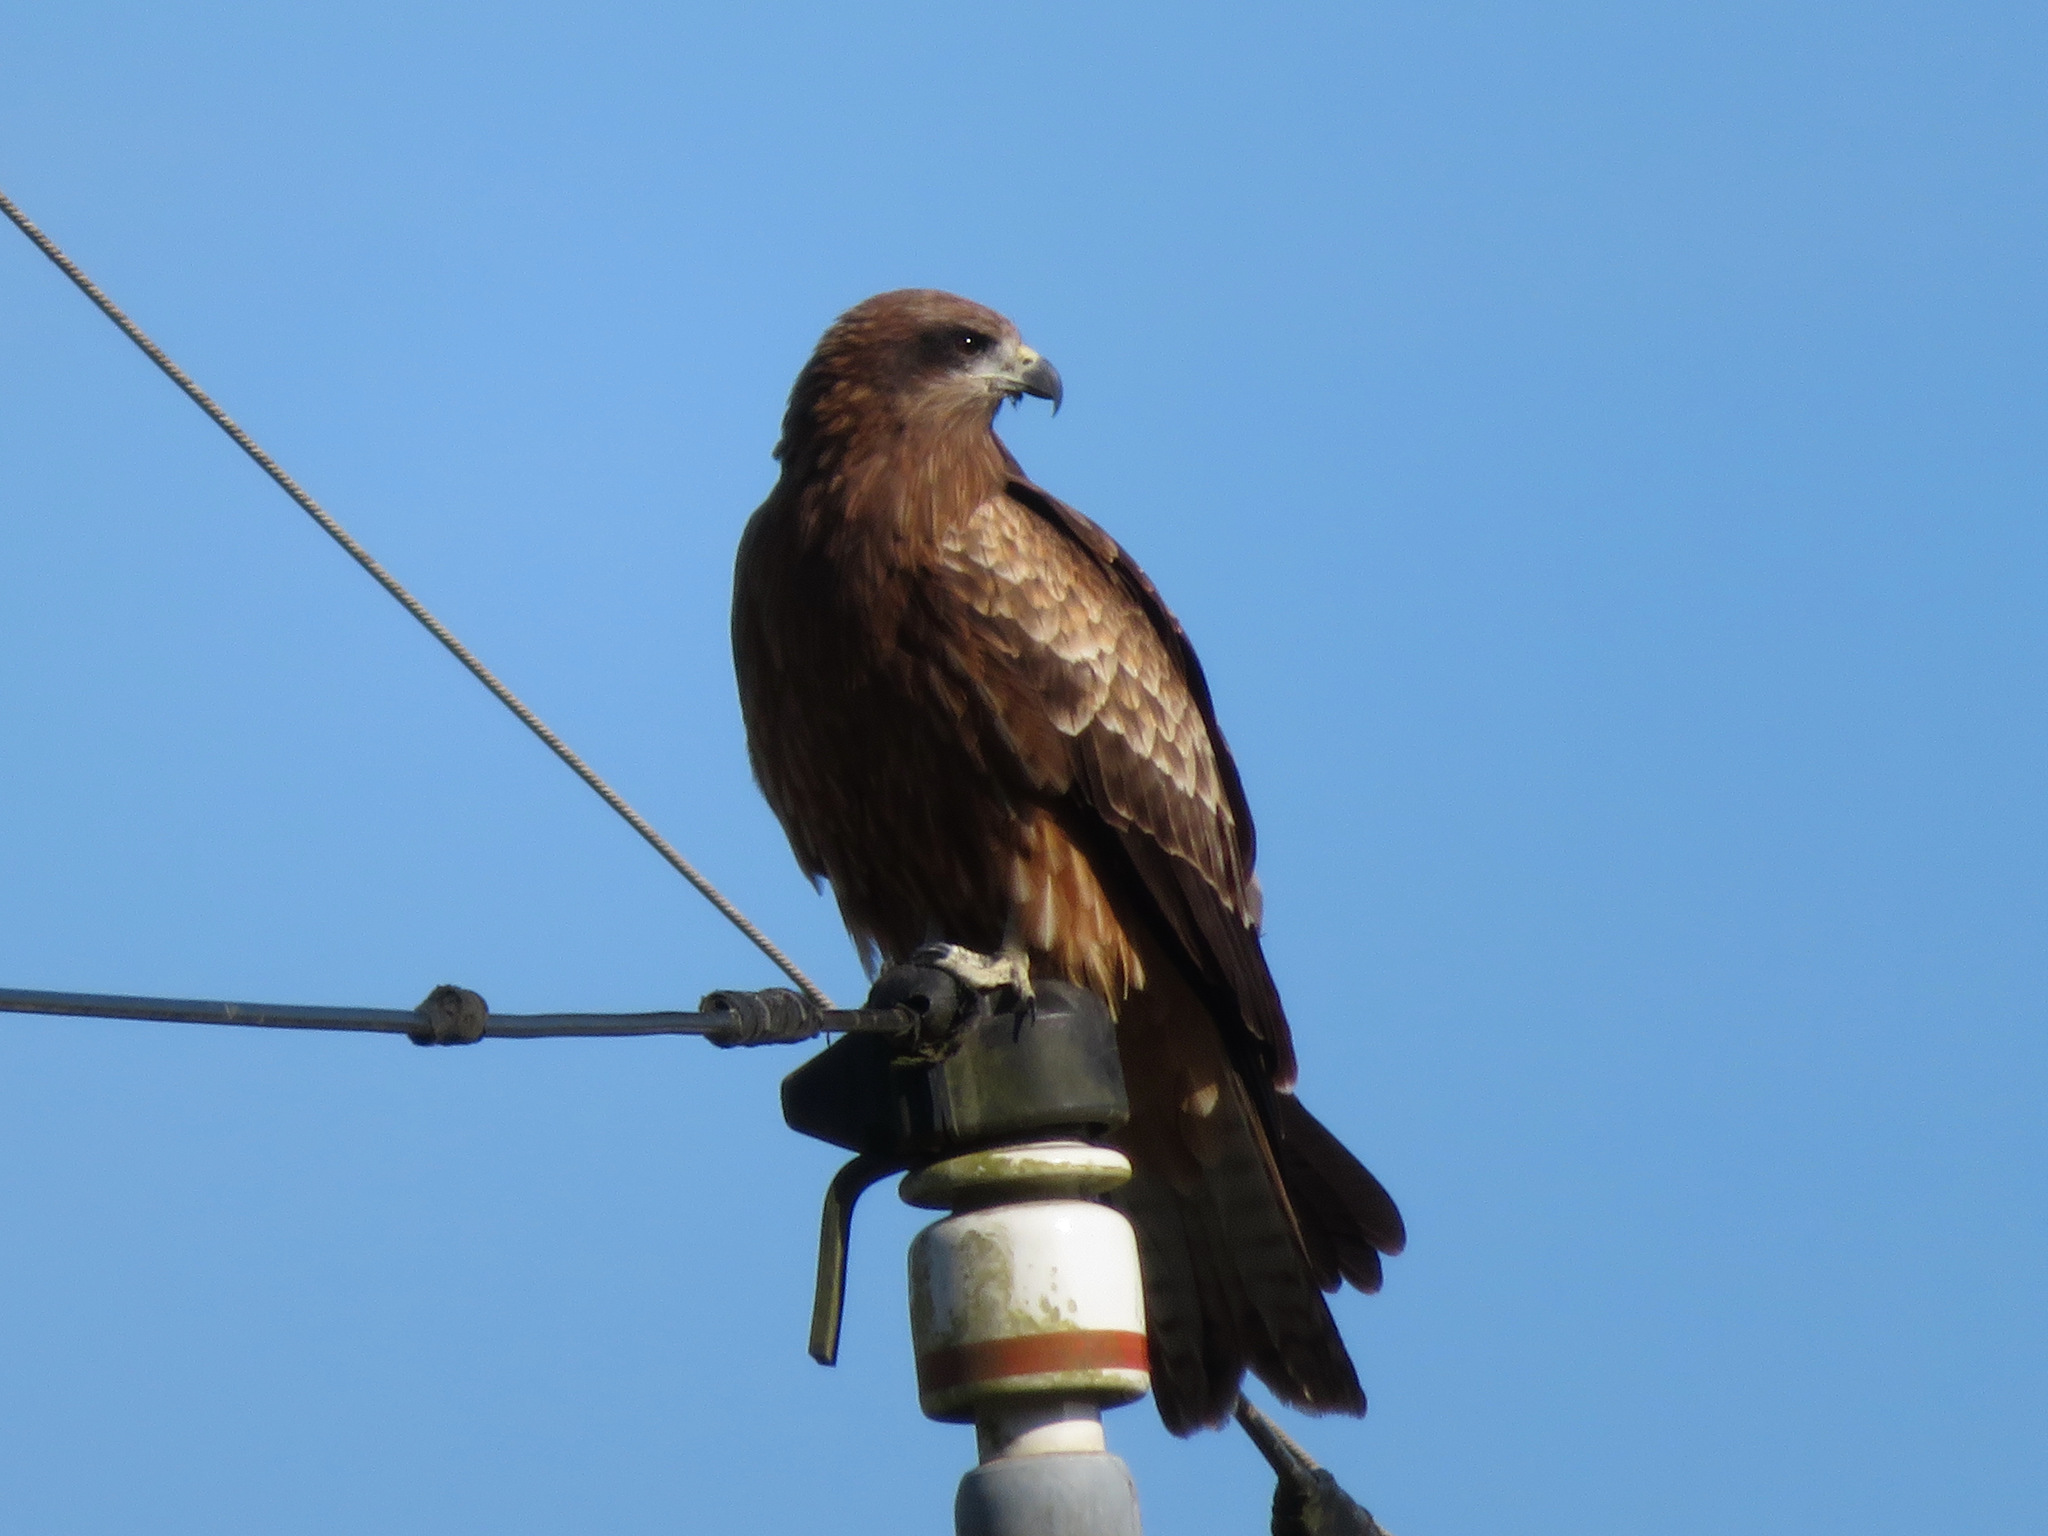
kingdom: Animalia
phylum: Chordata
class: Aves
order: Accipitriformes
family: Accipitridae
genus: Milvus
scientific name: Milvus migrans
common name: Black kite
